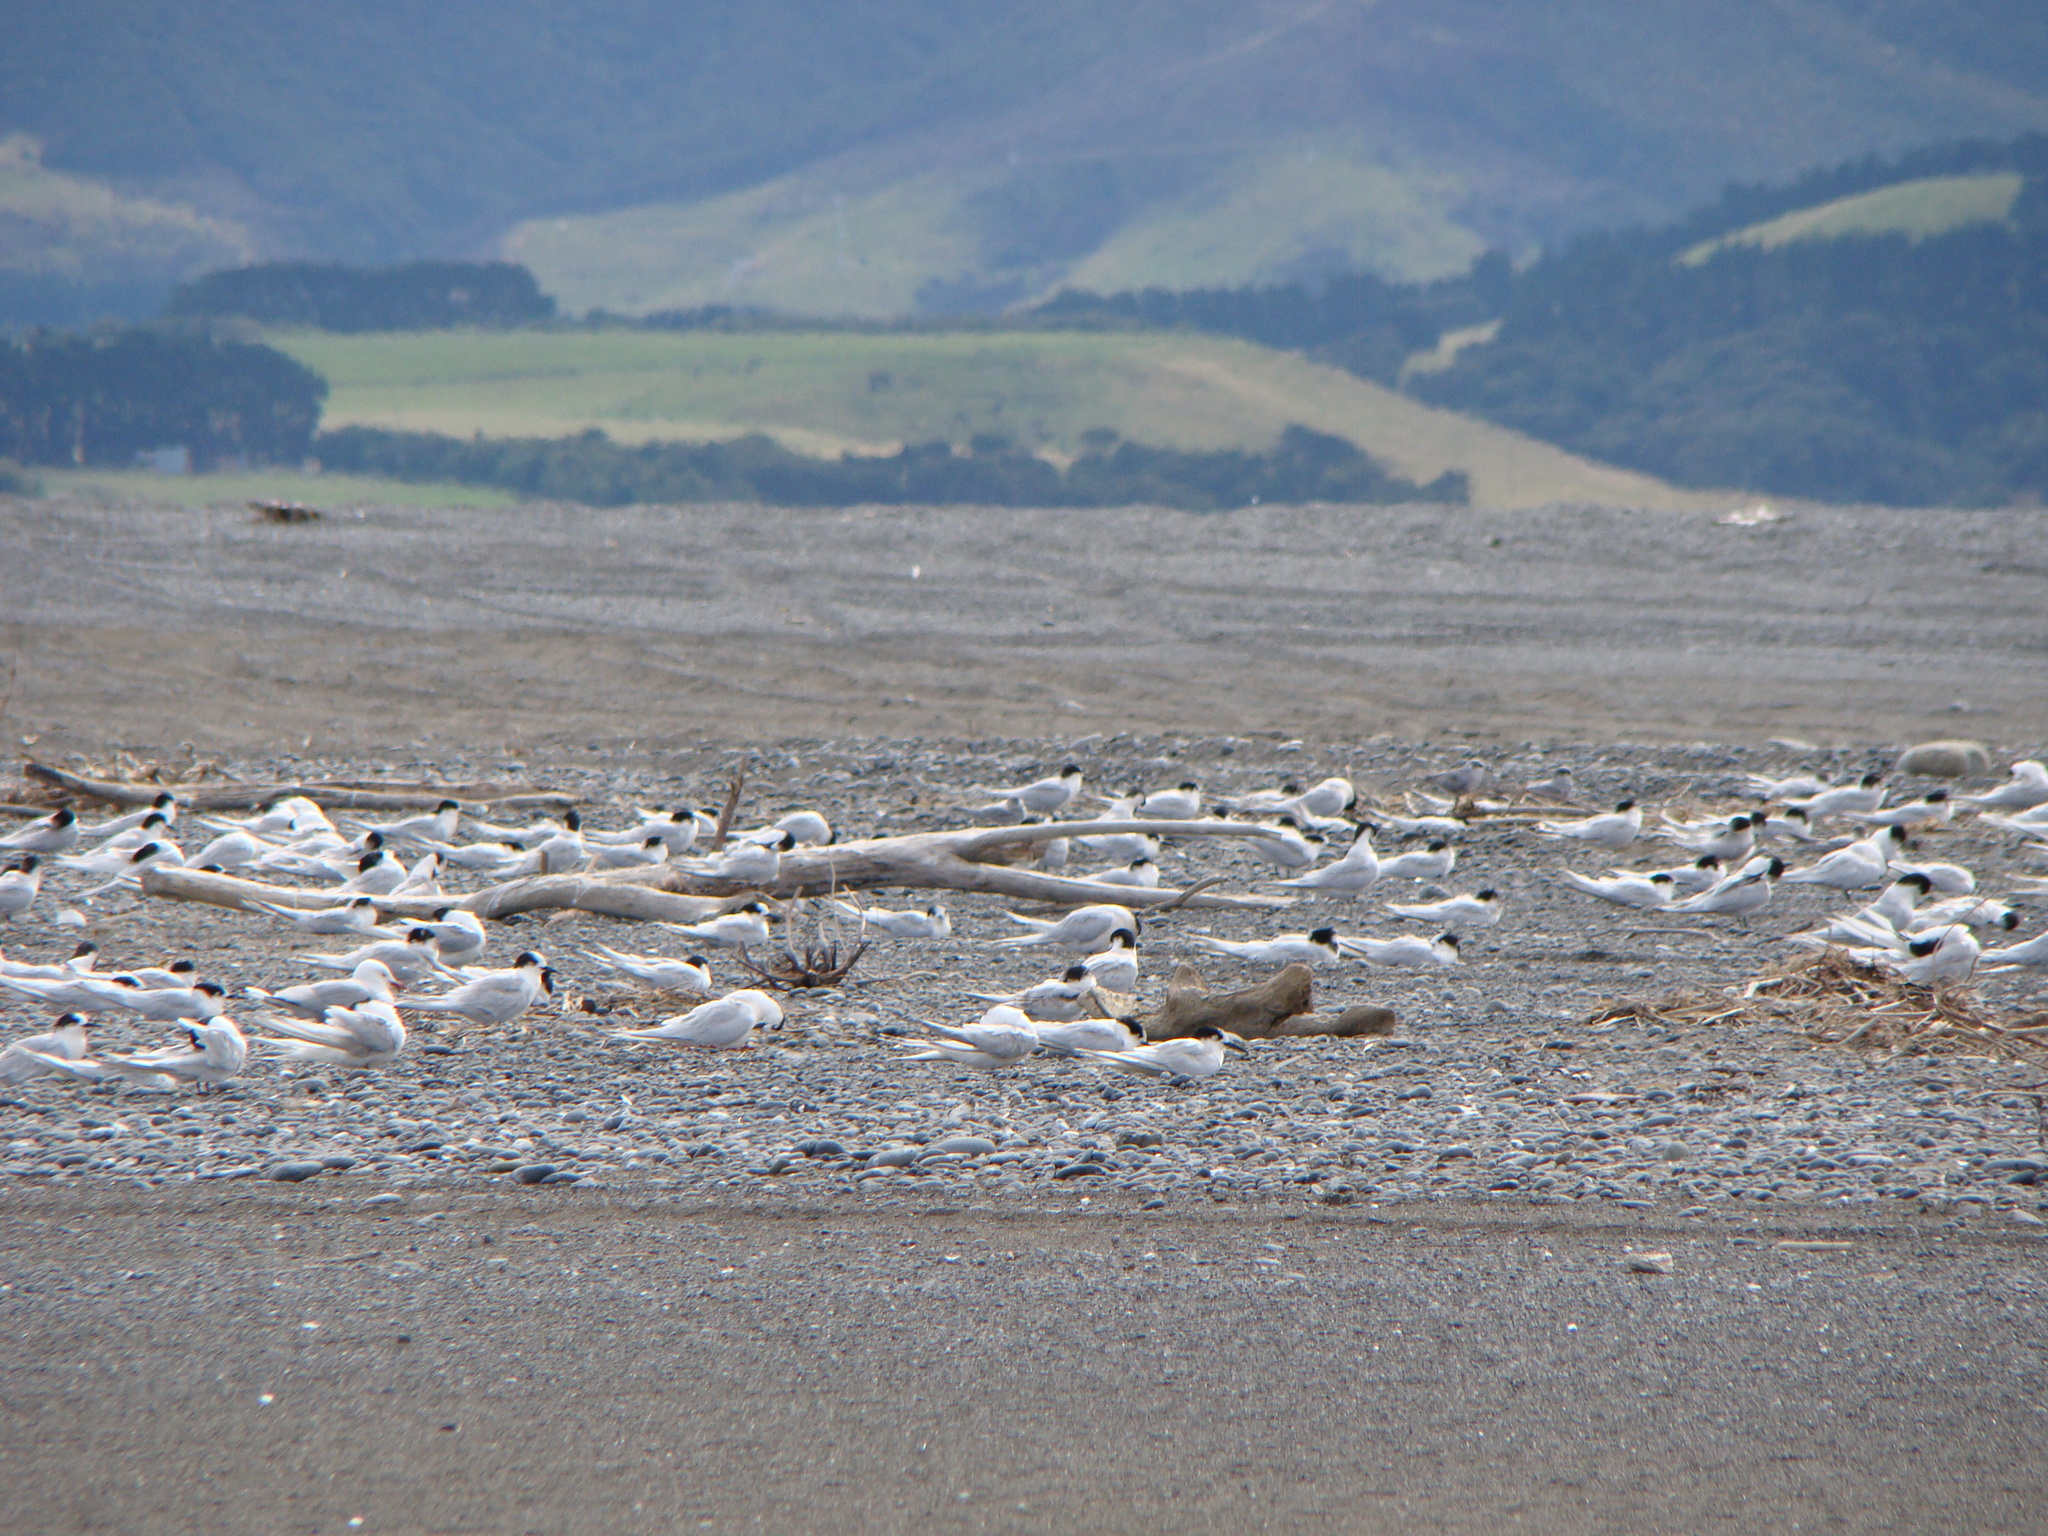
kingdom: Animalia
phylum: Chordata
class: Aves
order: Charadriiformes
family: Laridae
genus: Sterna
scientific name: Sterna striata
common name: White-fronted tern
